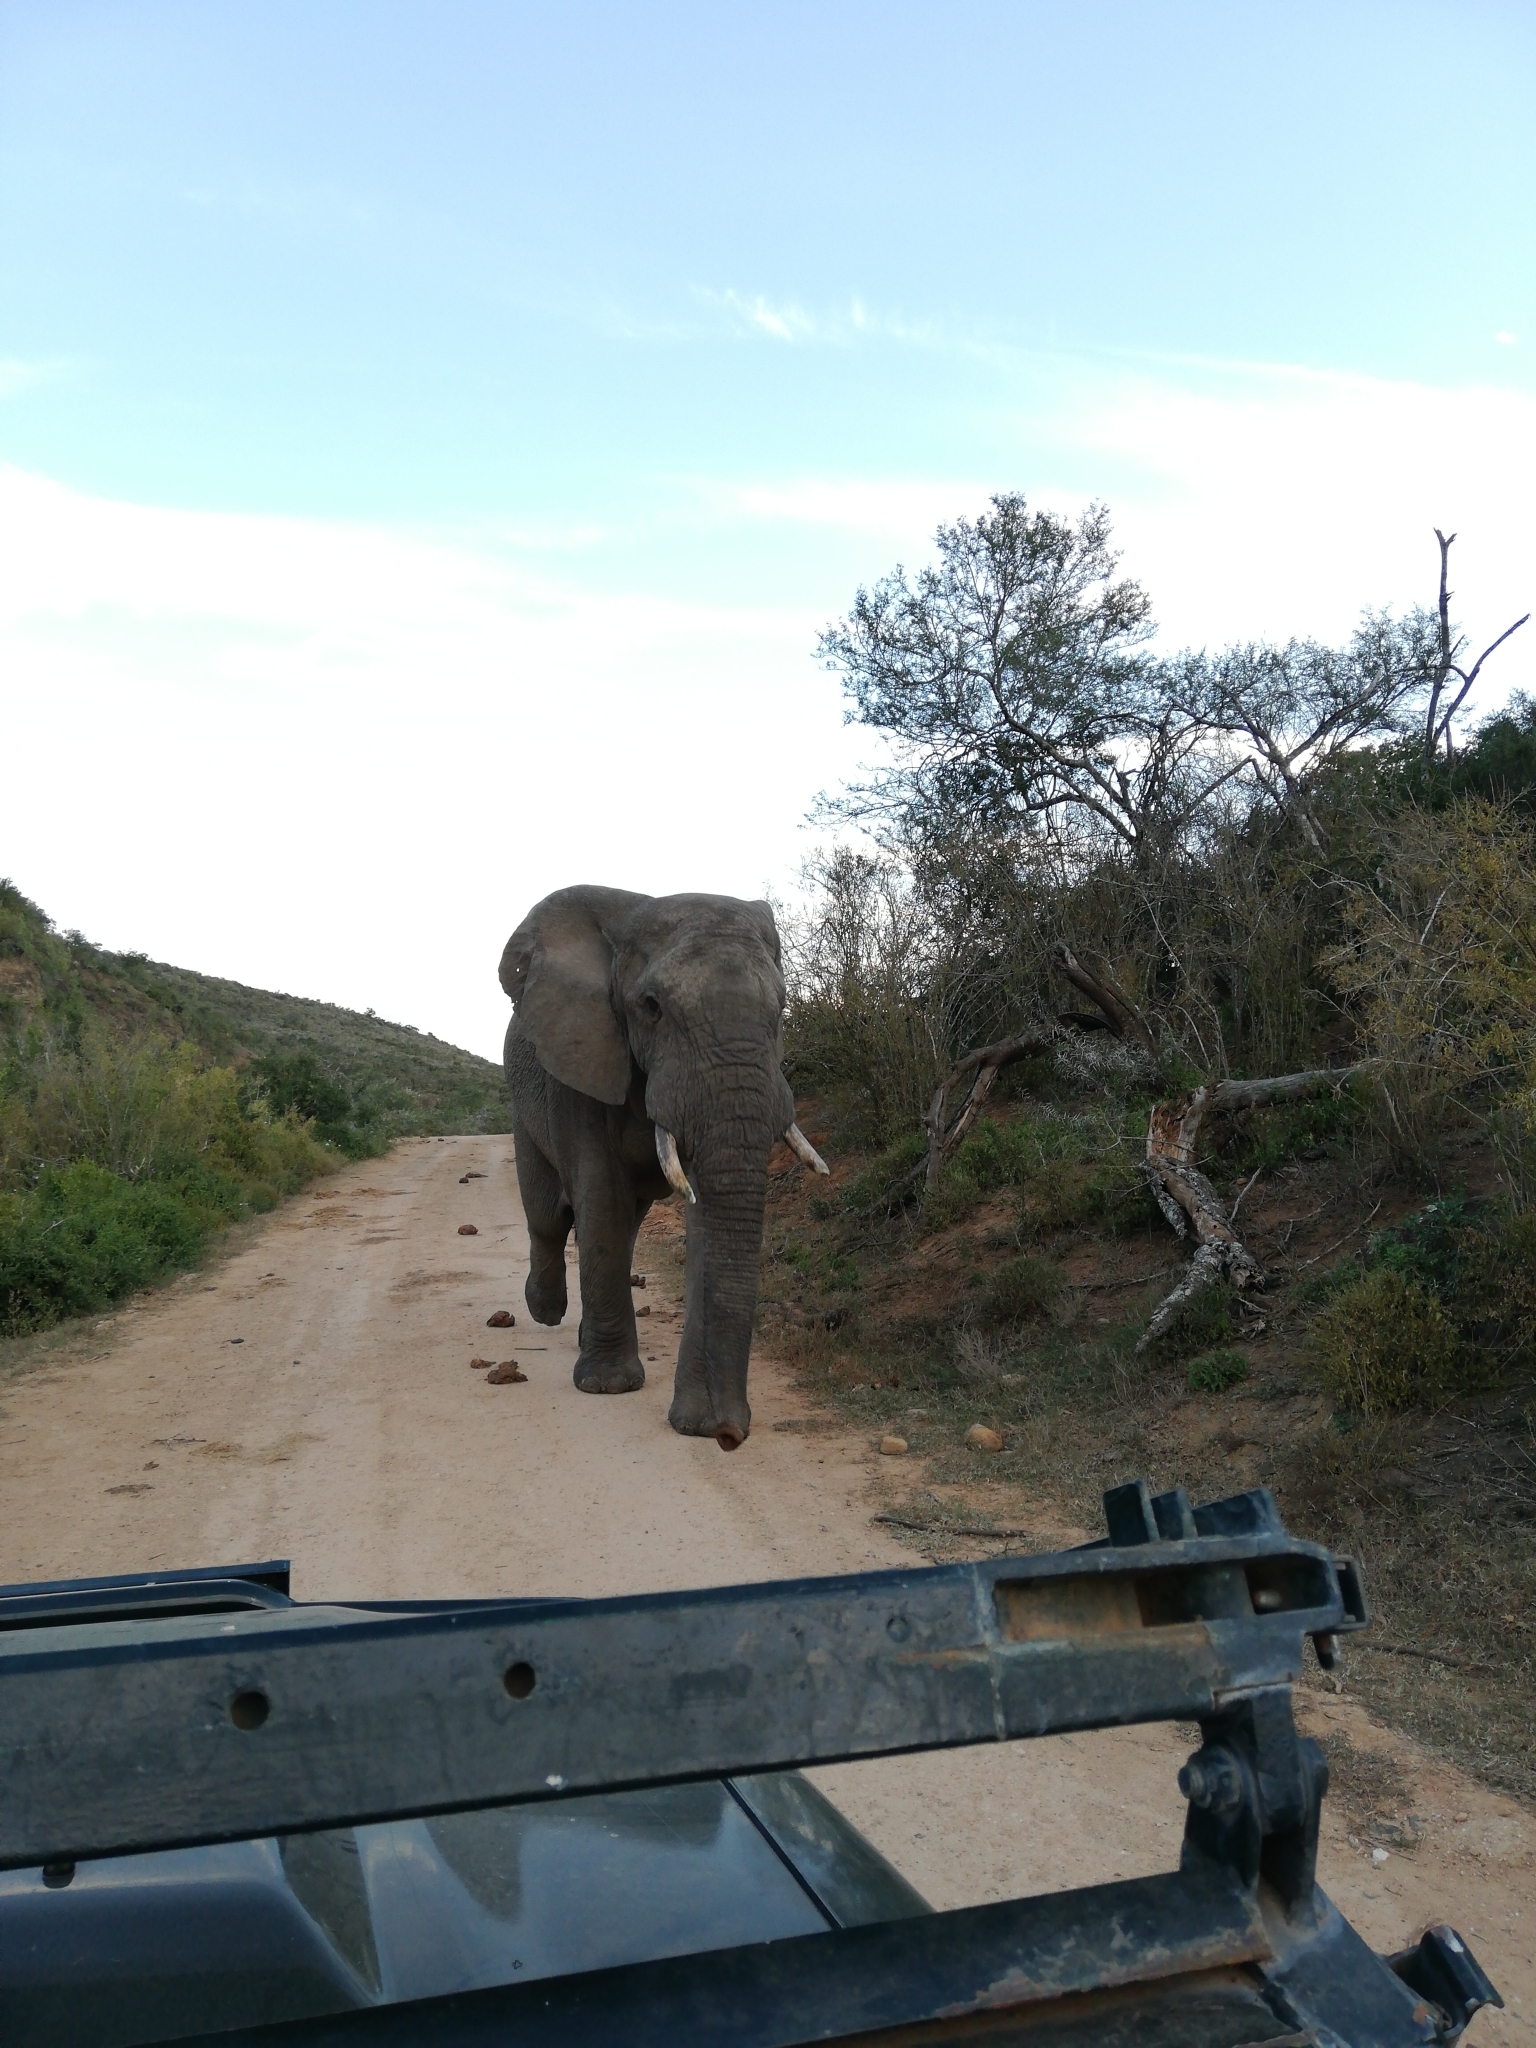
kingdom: Animalia
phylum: Chordata
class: Mammalia
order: Proboscidea
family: Elephantidae
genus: Loxodonta
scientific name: Loxodonta africana
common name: African elephant
